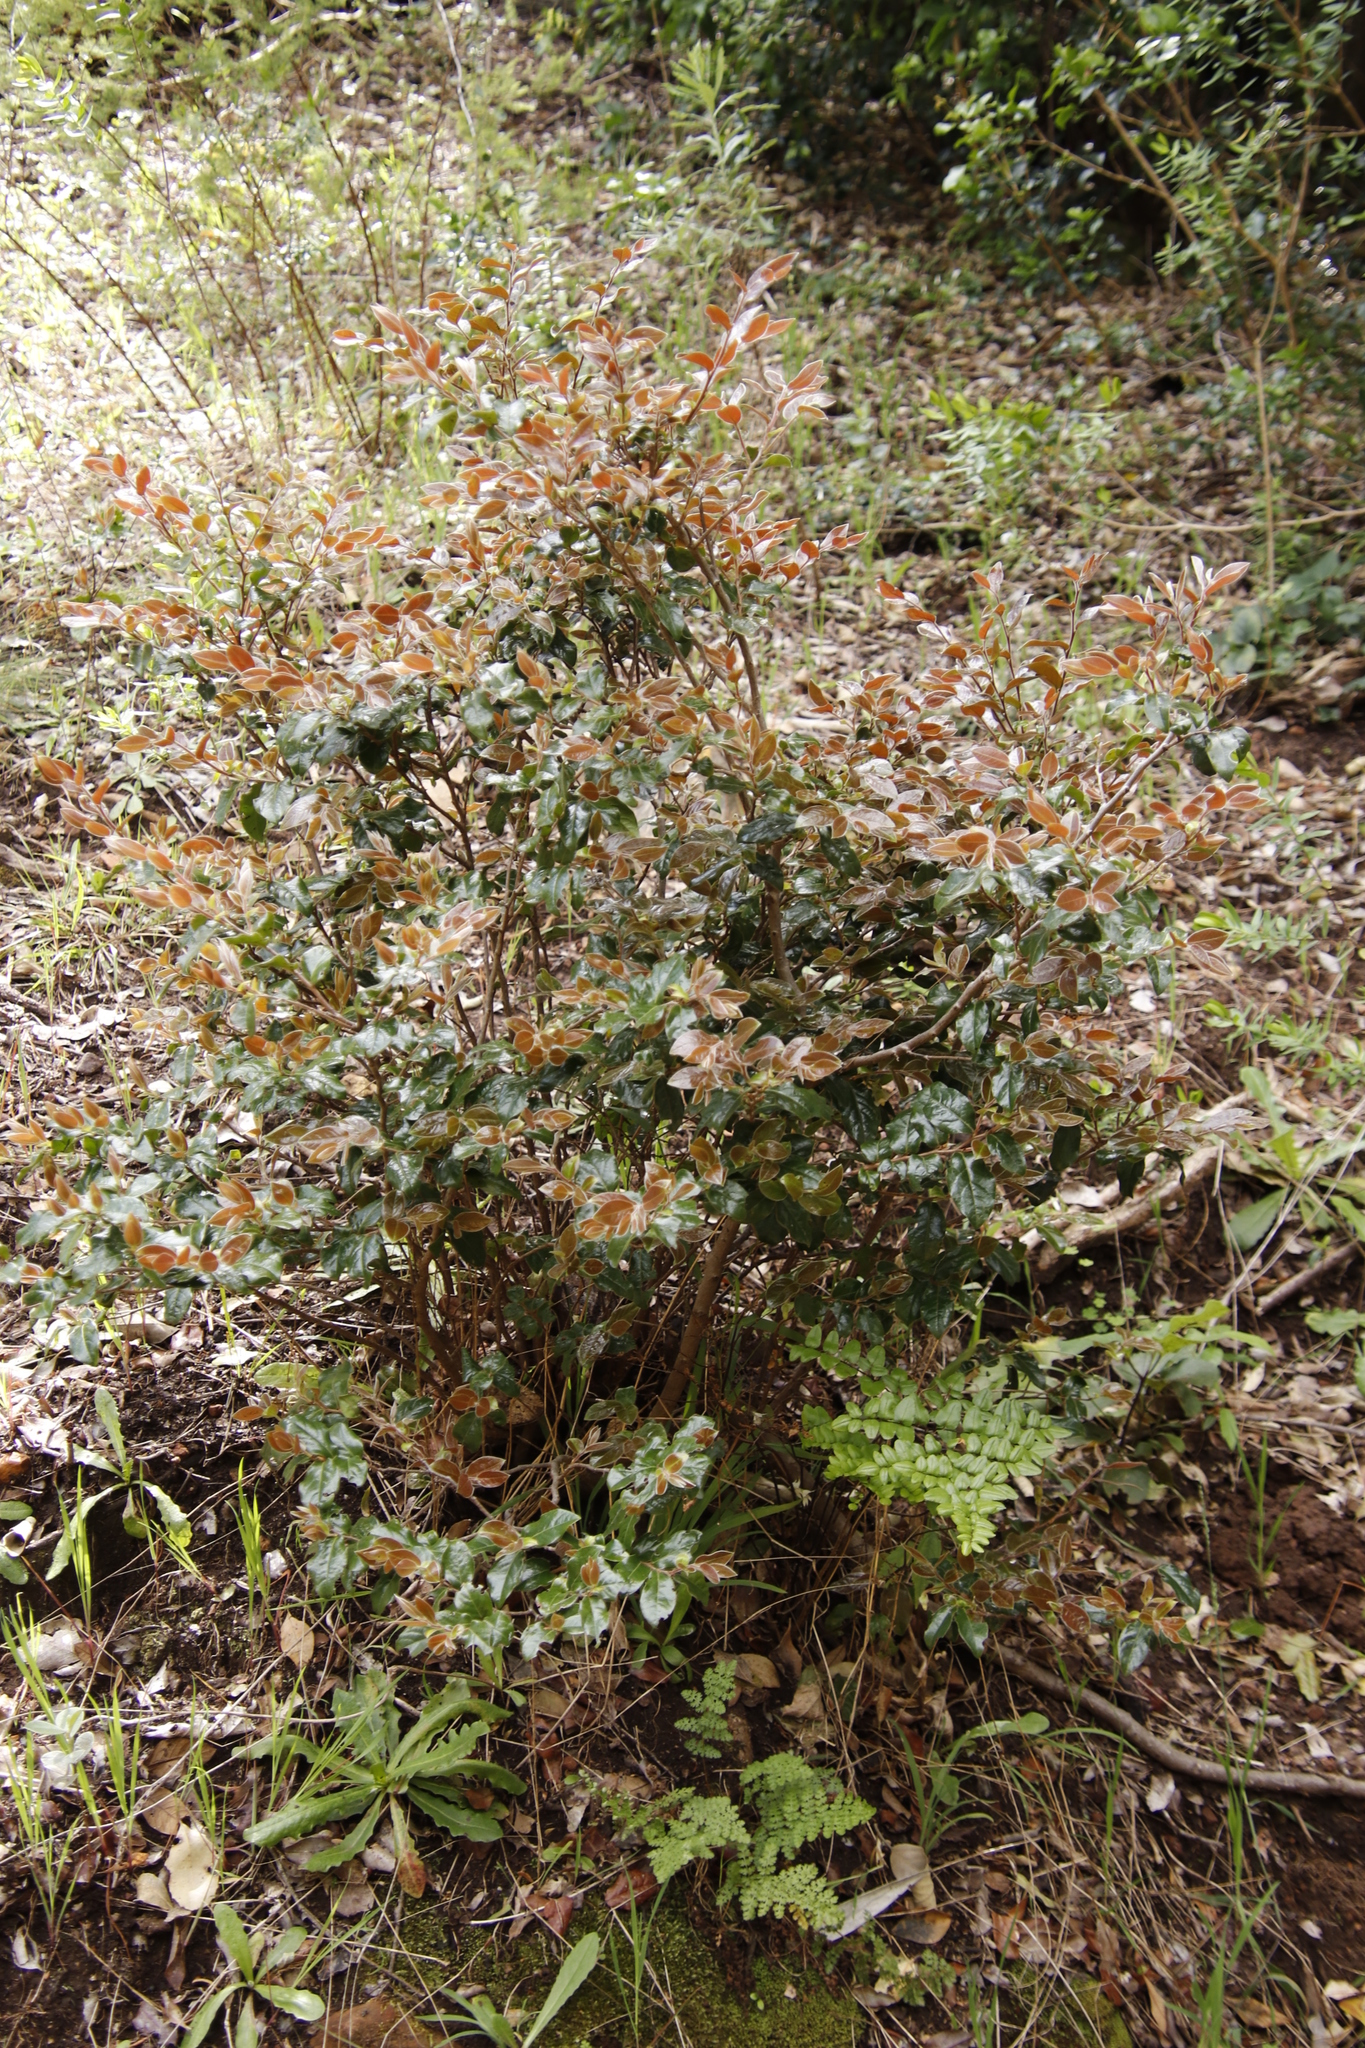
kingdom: Plantae
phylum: Tracheophyta
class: Magnoliopsida
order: Ericales
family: Ebenaceae
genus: Diospyros
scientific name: Diospyros whyteana
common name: Bladder-nut
